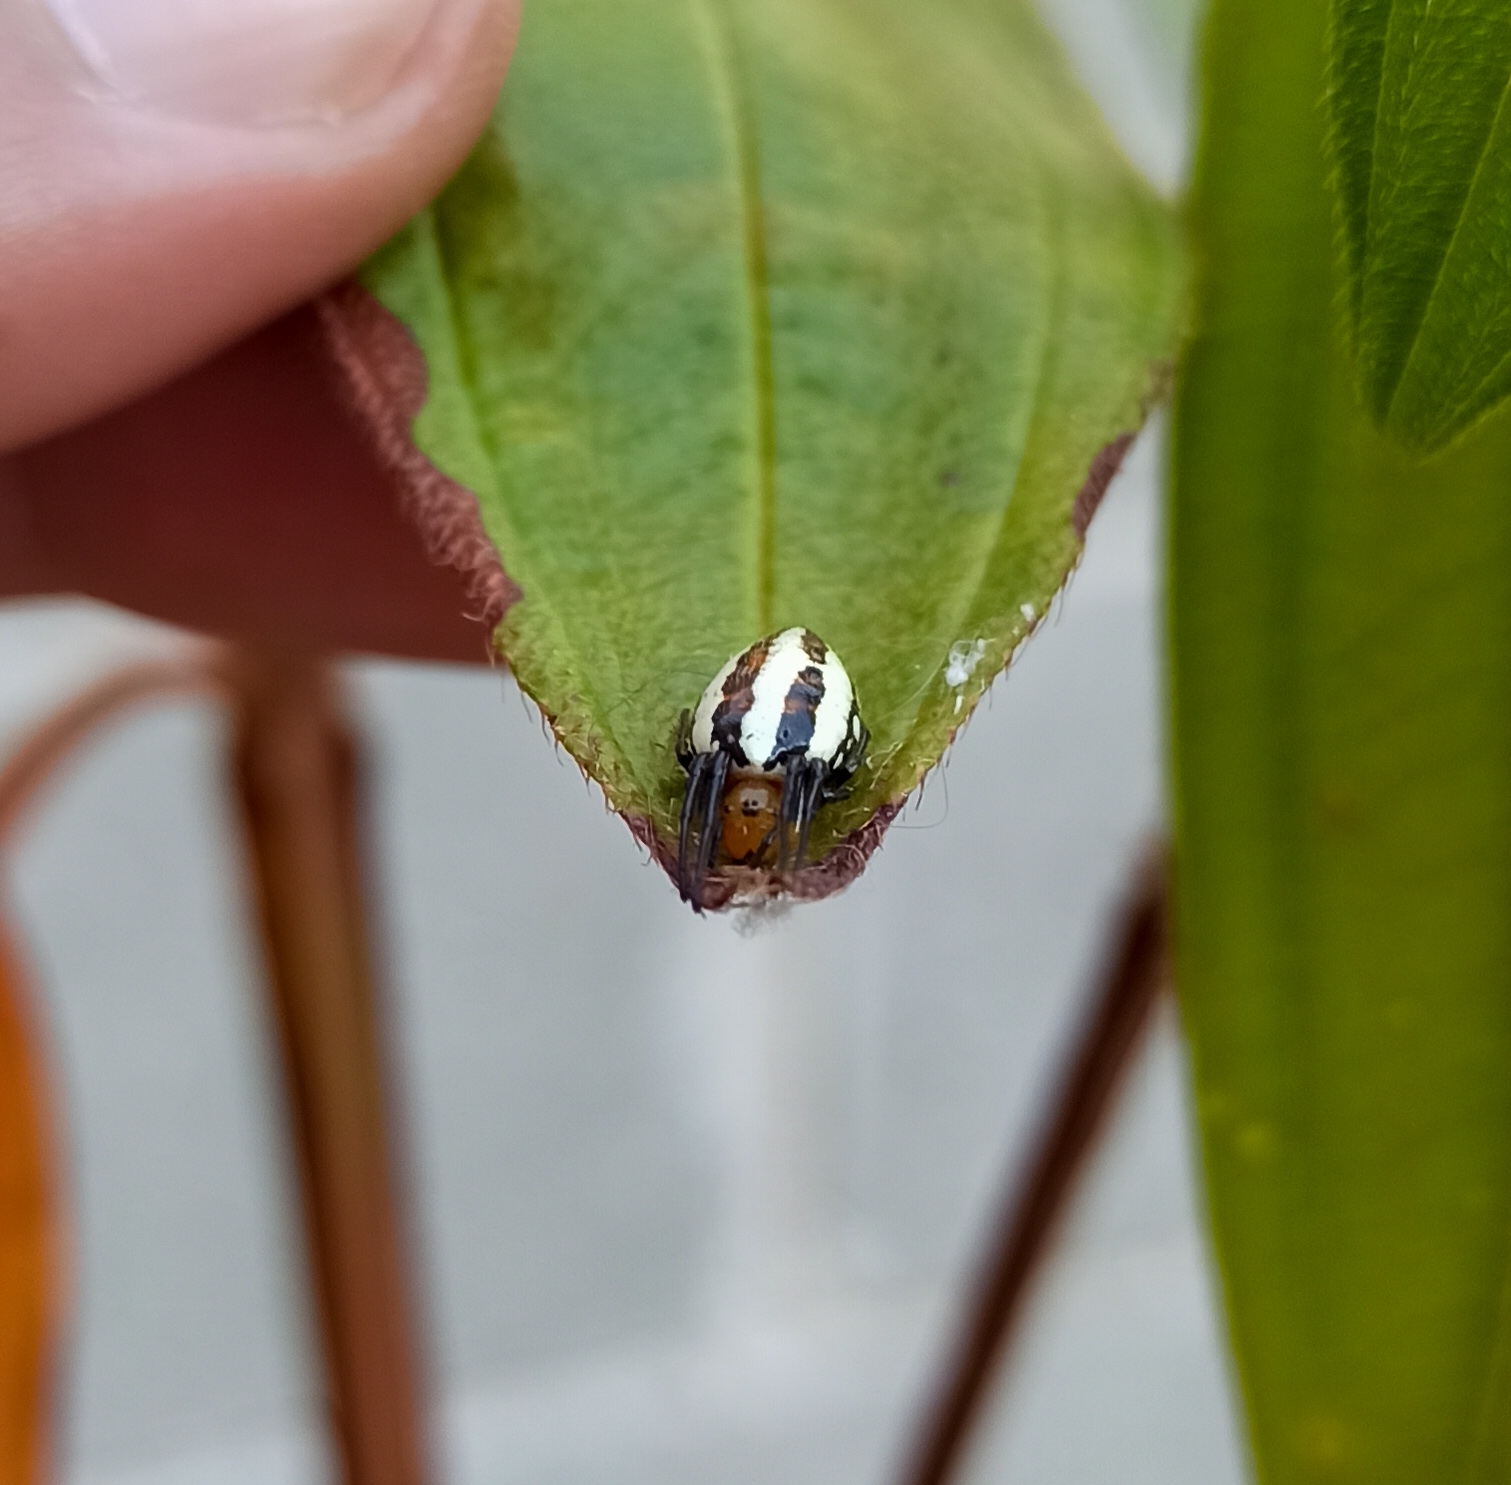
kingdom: Animalia
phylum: Arthropoda
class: Arachnida
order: Araneae
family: Araneidae
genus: Alpaida
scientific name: Alpaida rubellula
